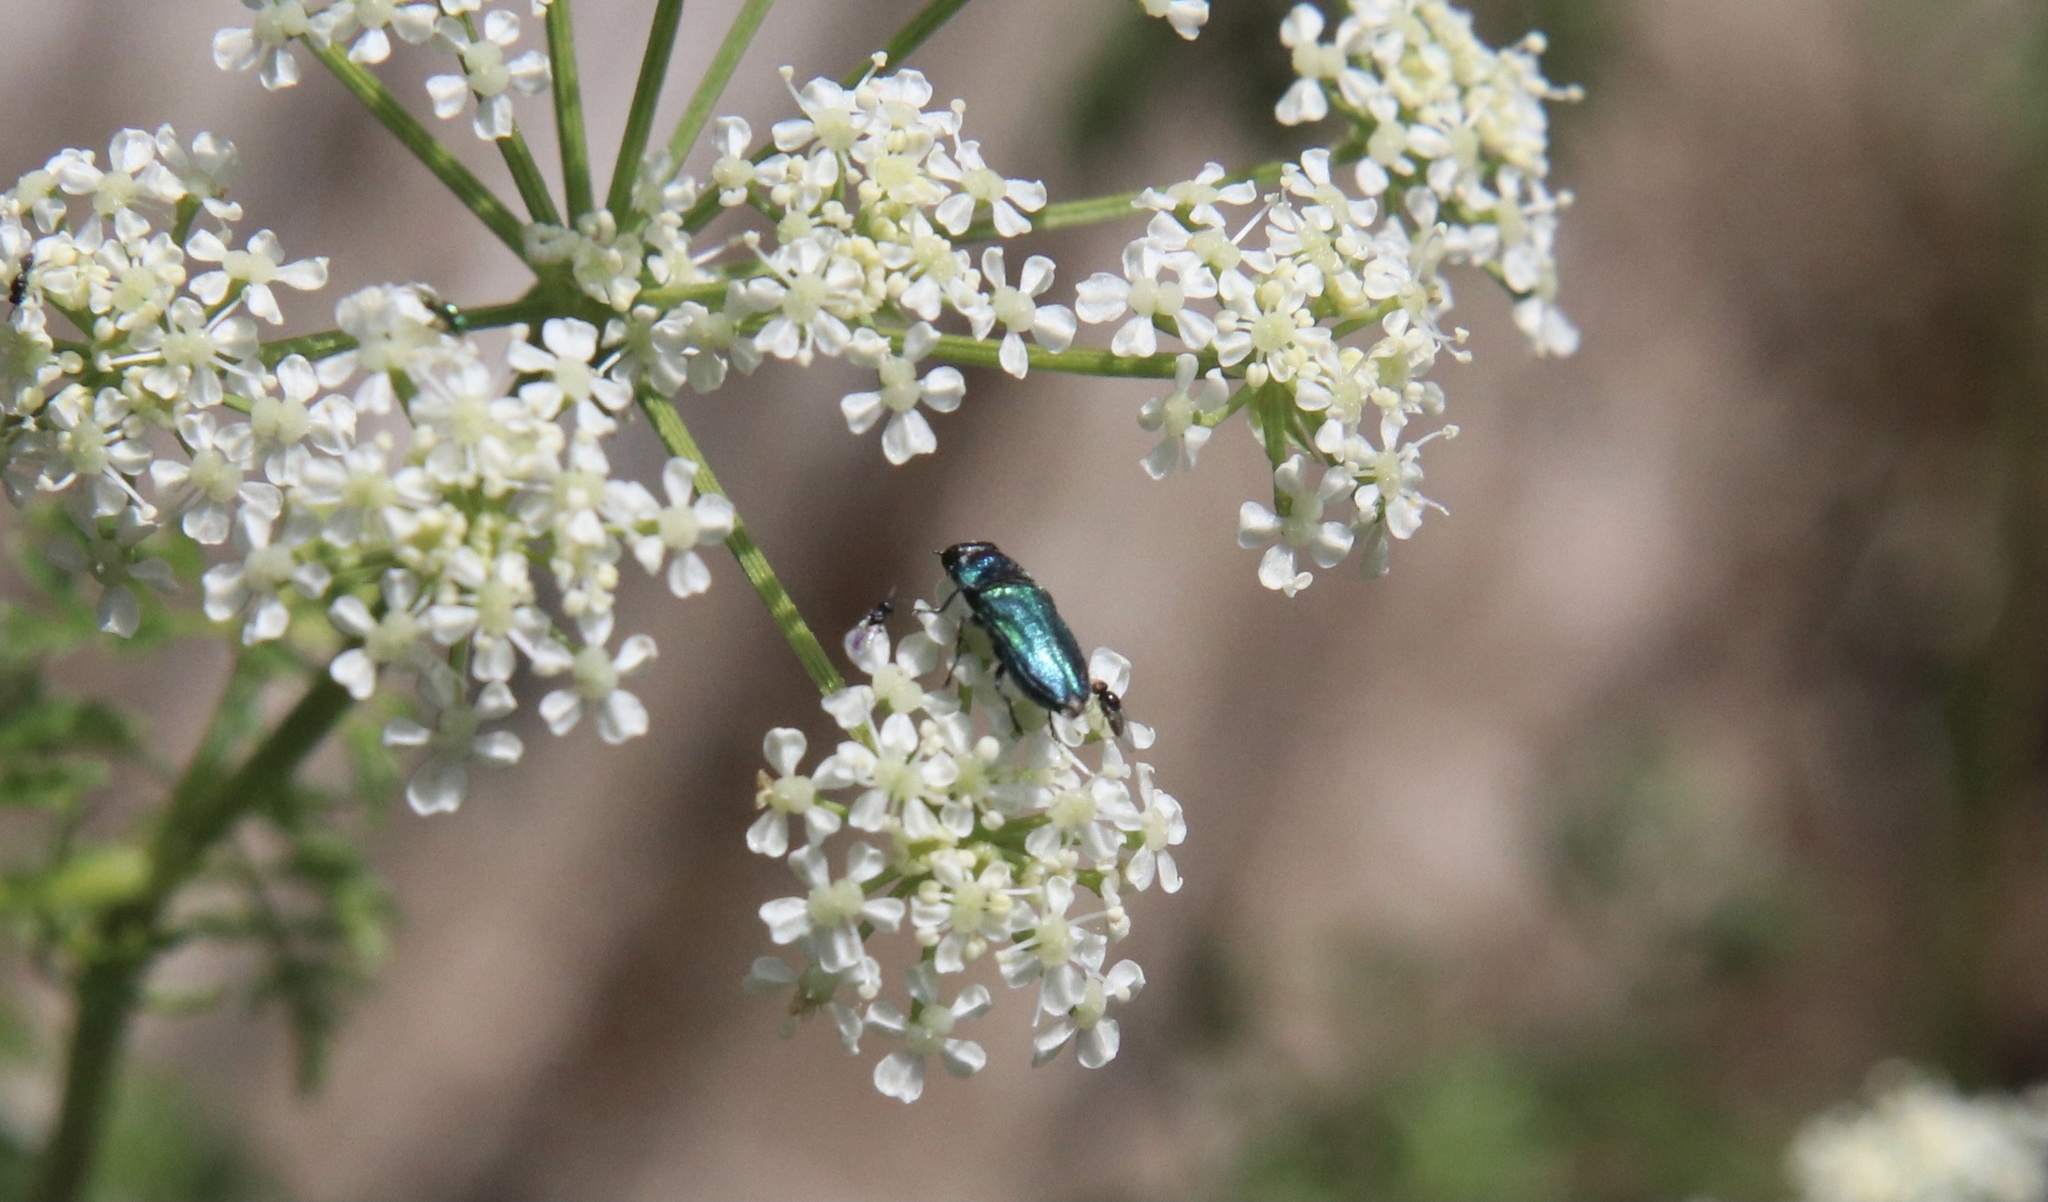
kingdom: Animalia
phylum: Arthropoda
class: Insecta
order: Coleoptera
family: Buprestidae
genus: Bilyaxia
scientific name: Bilyaxia concinna
